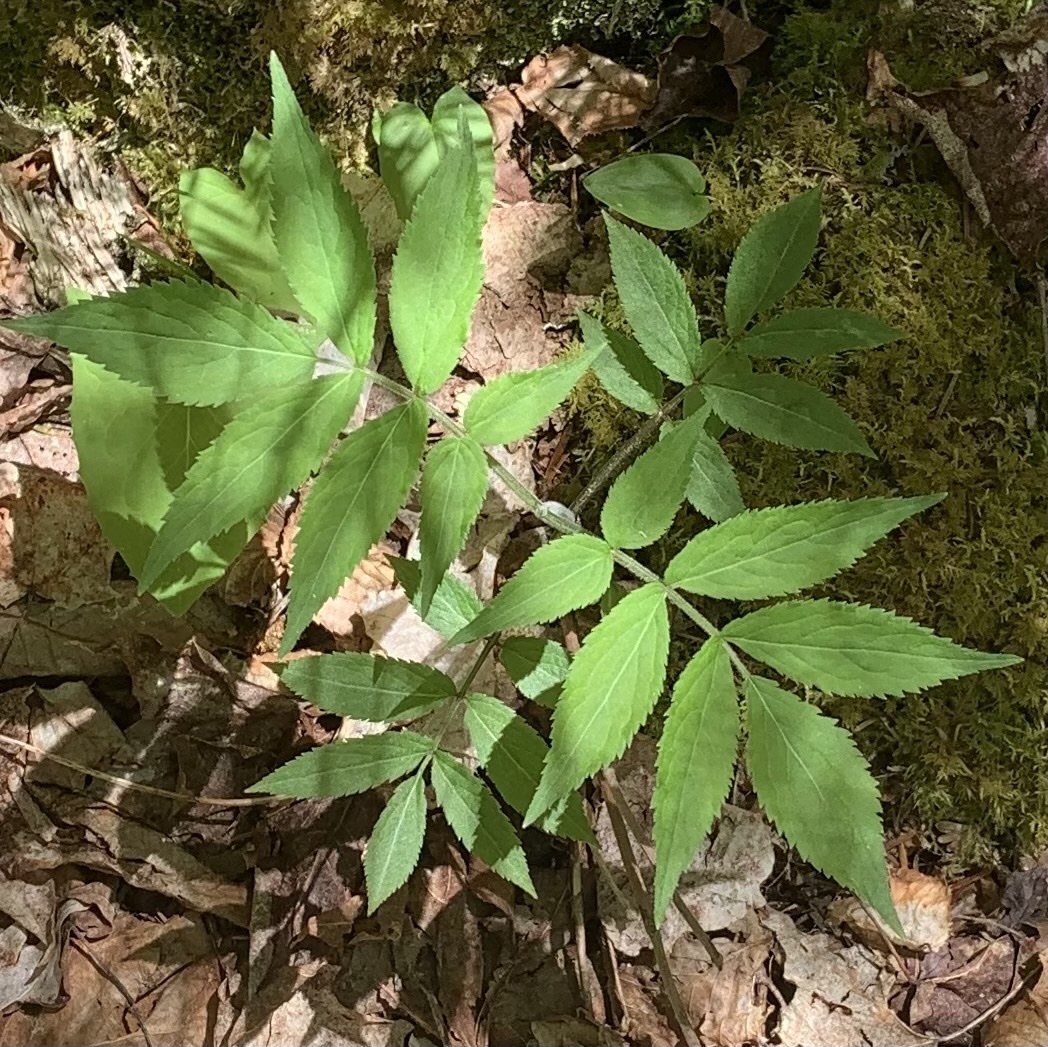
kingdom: Plantae
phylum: Tracheophyta
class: Magnoliopsida
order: Dipsacales
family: Viburnaceae
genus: Sambucus
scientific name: Sambucus
